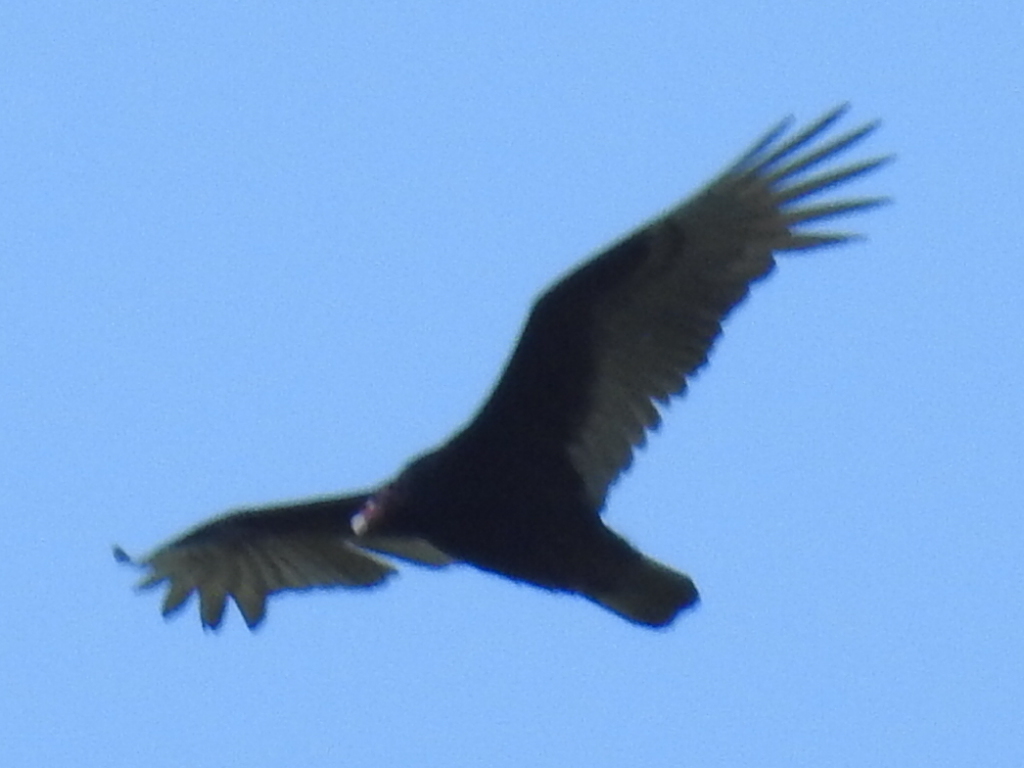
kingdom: Animalia
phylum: Chordata
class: Aves
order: Accipitriformes
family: Cathartidae
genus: Cathartes
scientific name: Cathartes aura
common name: Turkey vulture
